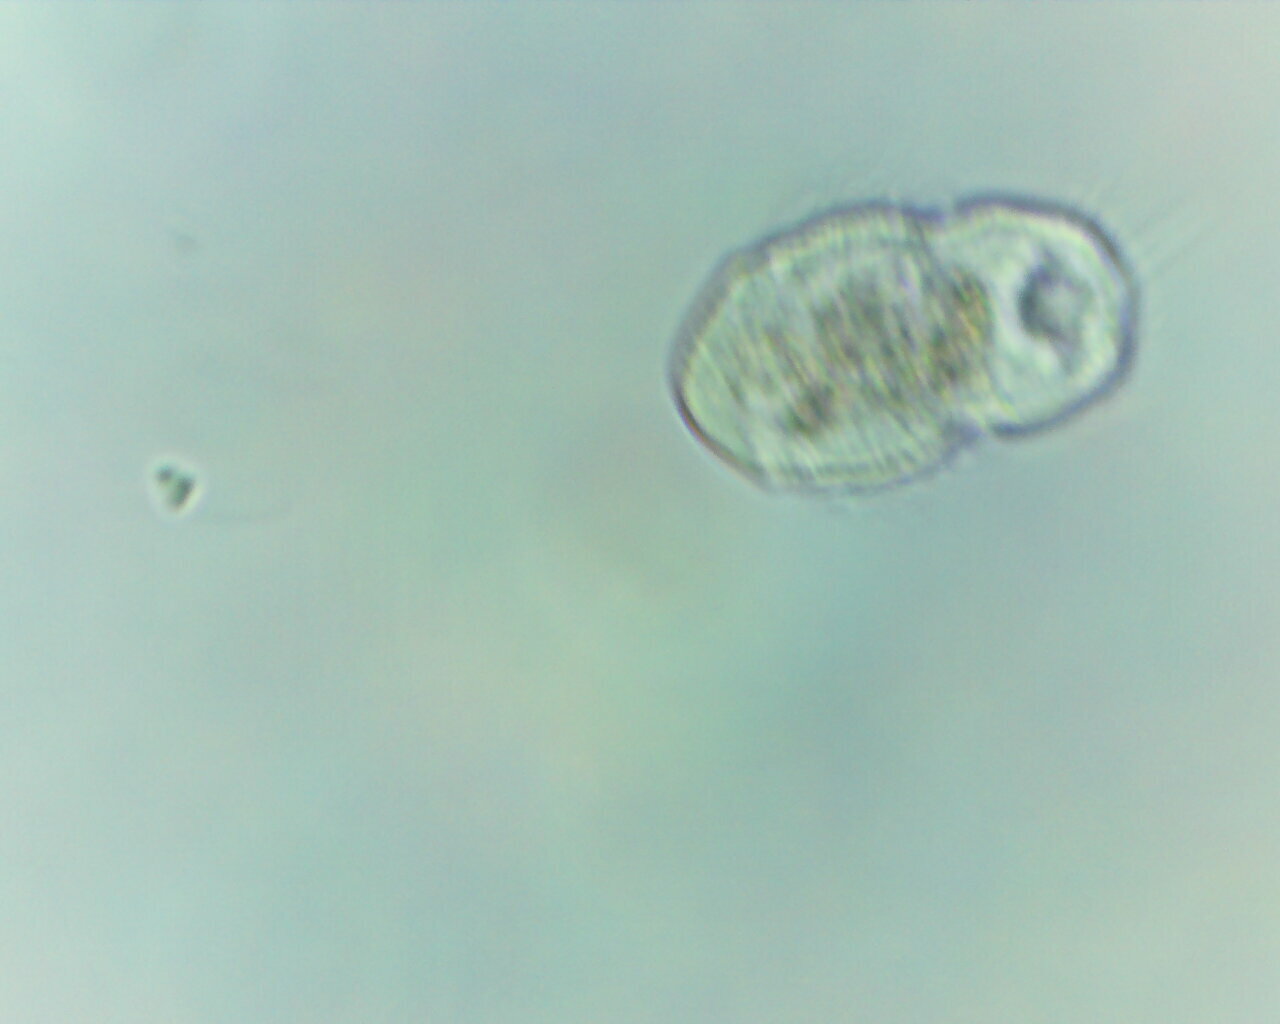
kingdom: Chromista
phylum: Ciliophora
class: Oligohymenophorea
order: Hymenostomatida
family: Urocentridae
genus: Urocentrum
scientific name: Urocentrum turbo
